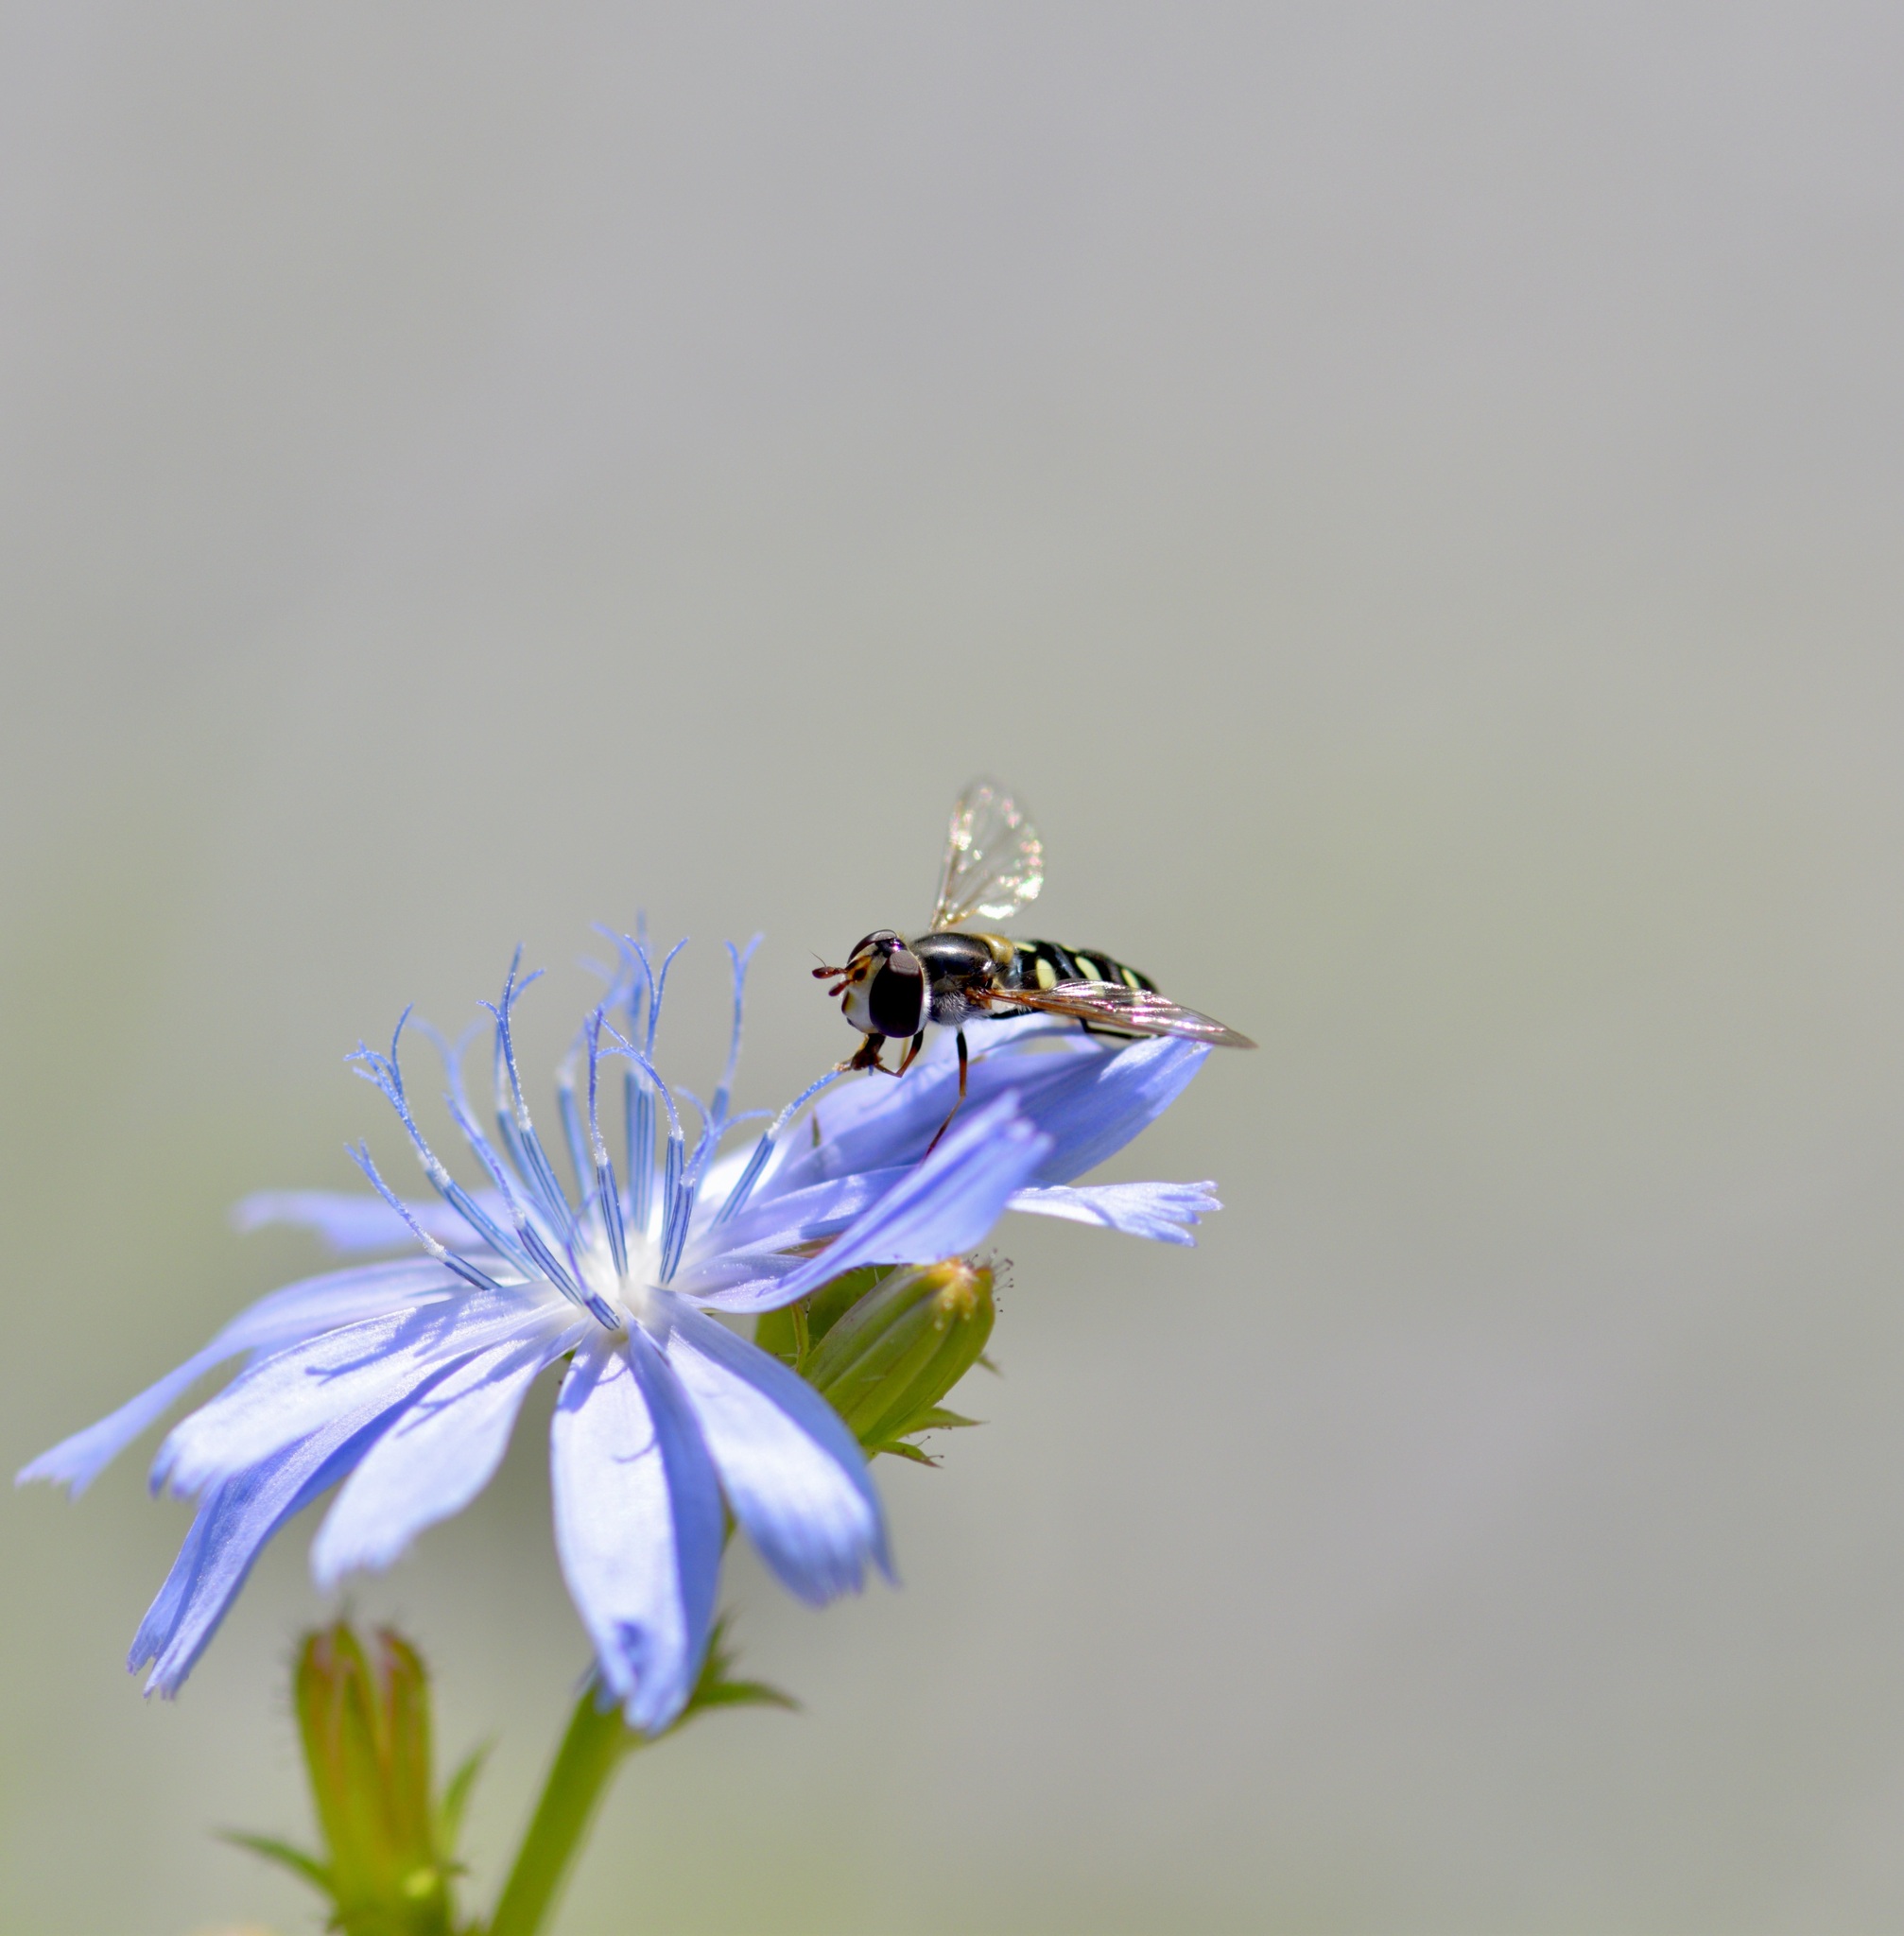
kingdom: Animalia
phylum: Arthropoda
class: Insecta
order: Diptera
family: Syrphidae
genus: Eupeodes
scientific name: Eupeodes perplexus
